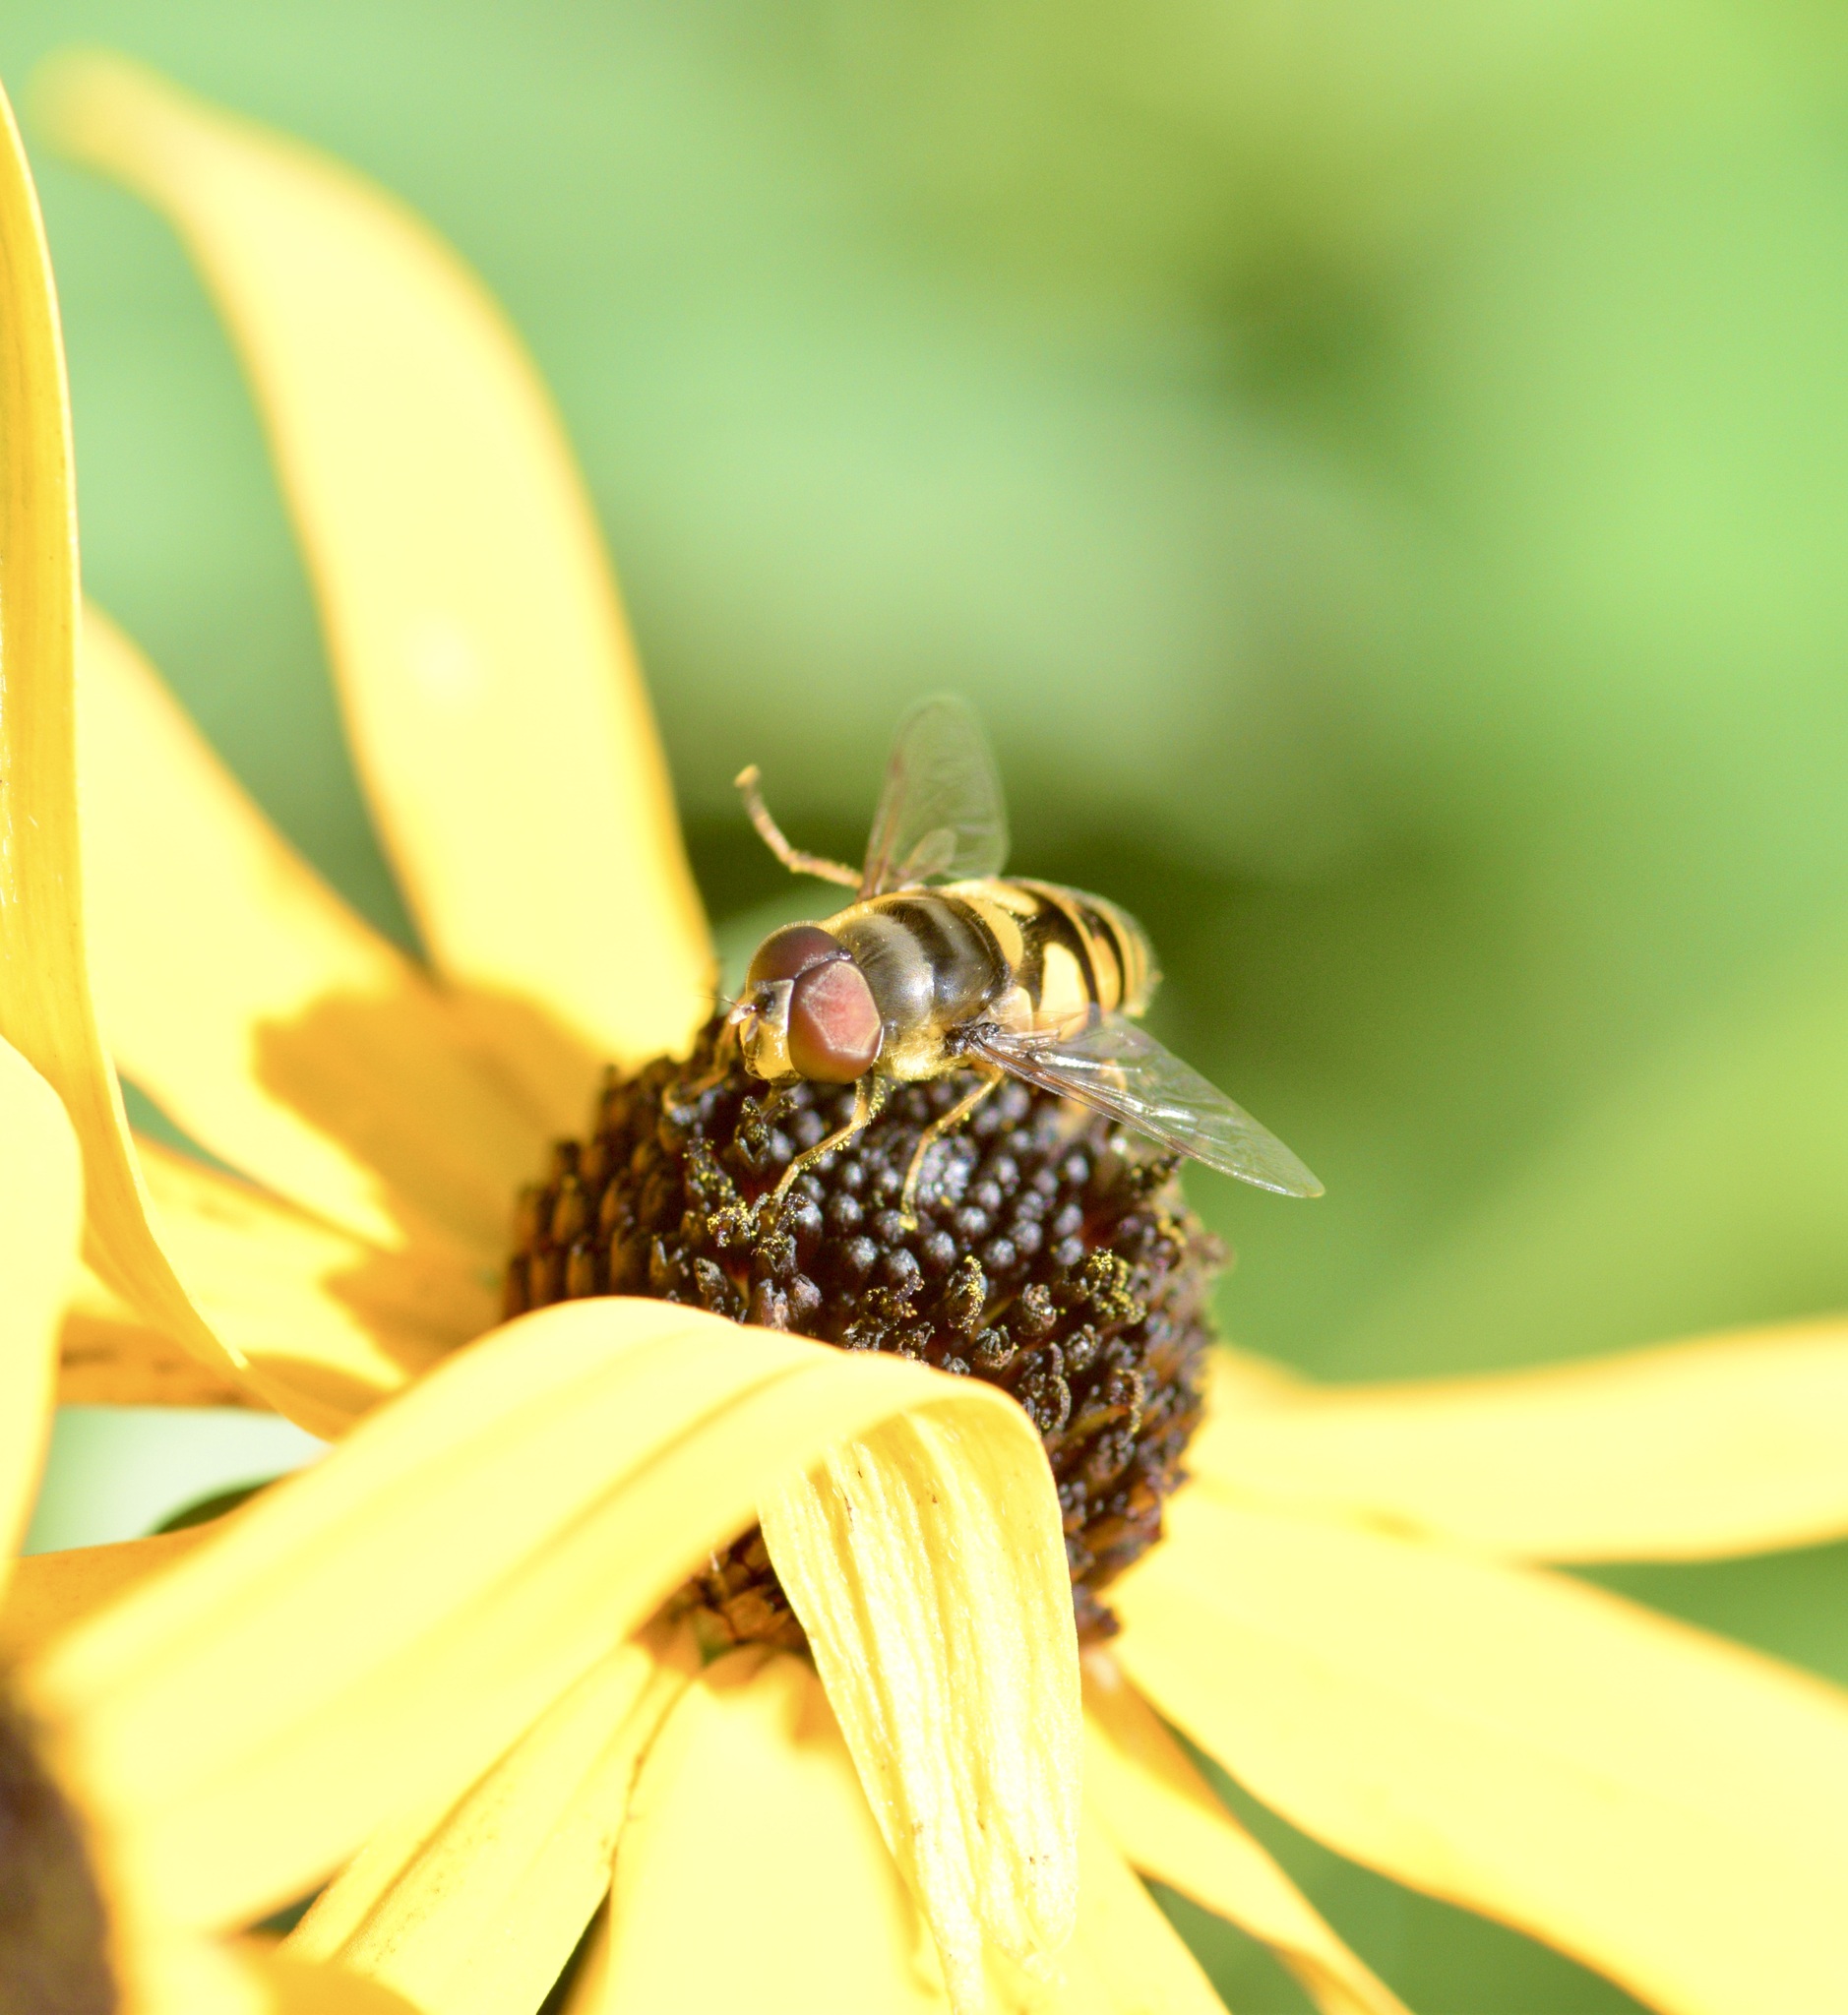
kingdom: Animalia
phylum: Arthropoda
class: Insecta
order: Diptera
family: Syrphidae
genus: Eristalis
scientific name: Eristalis transversa
